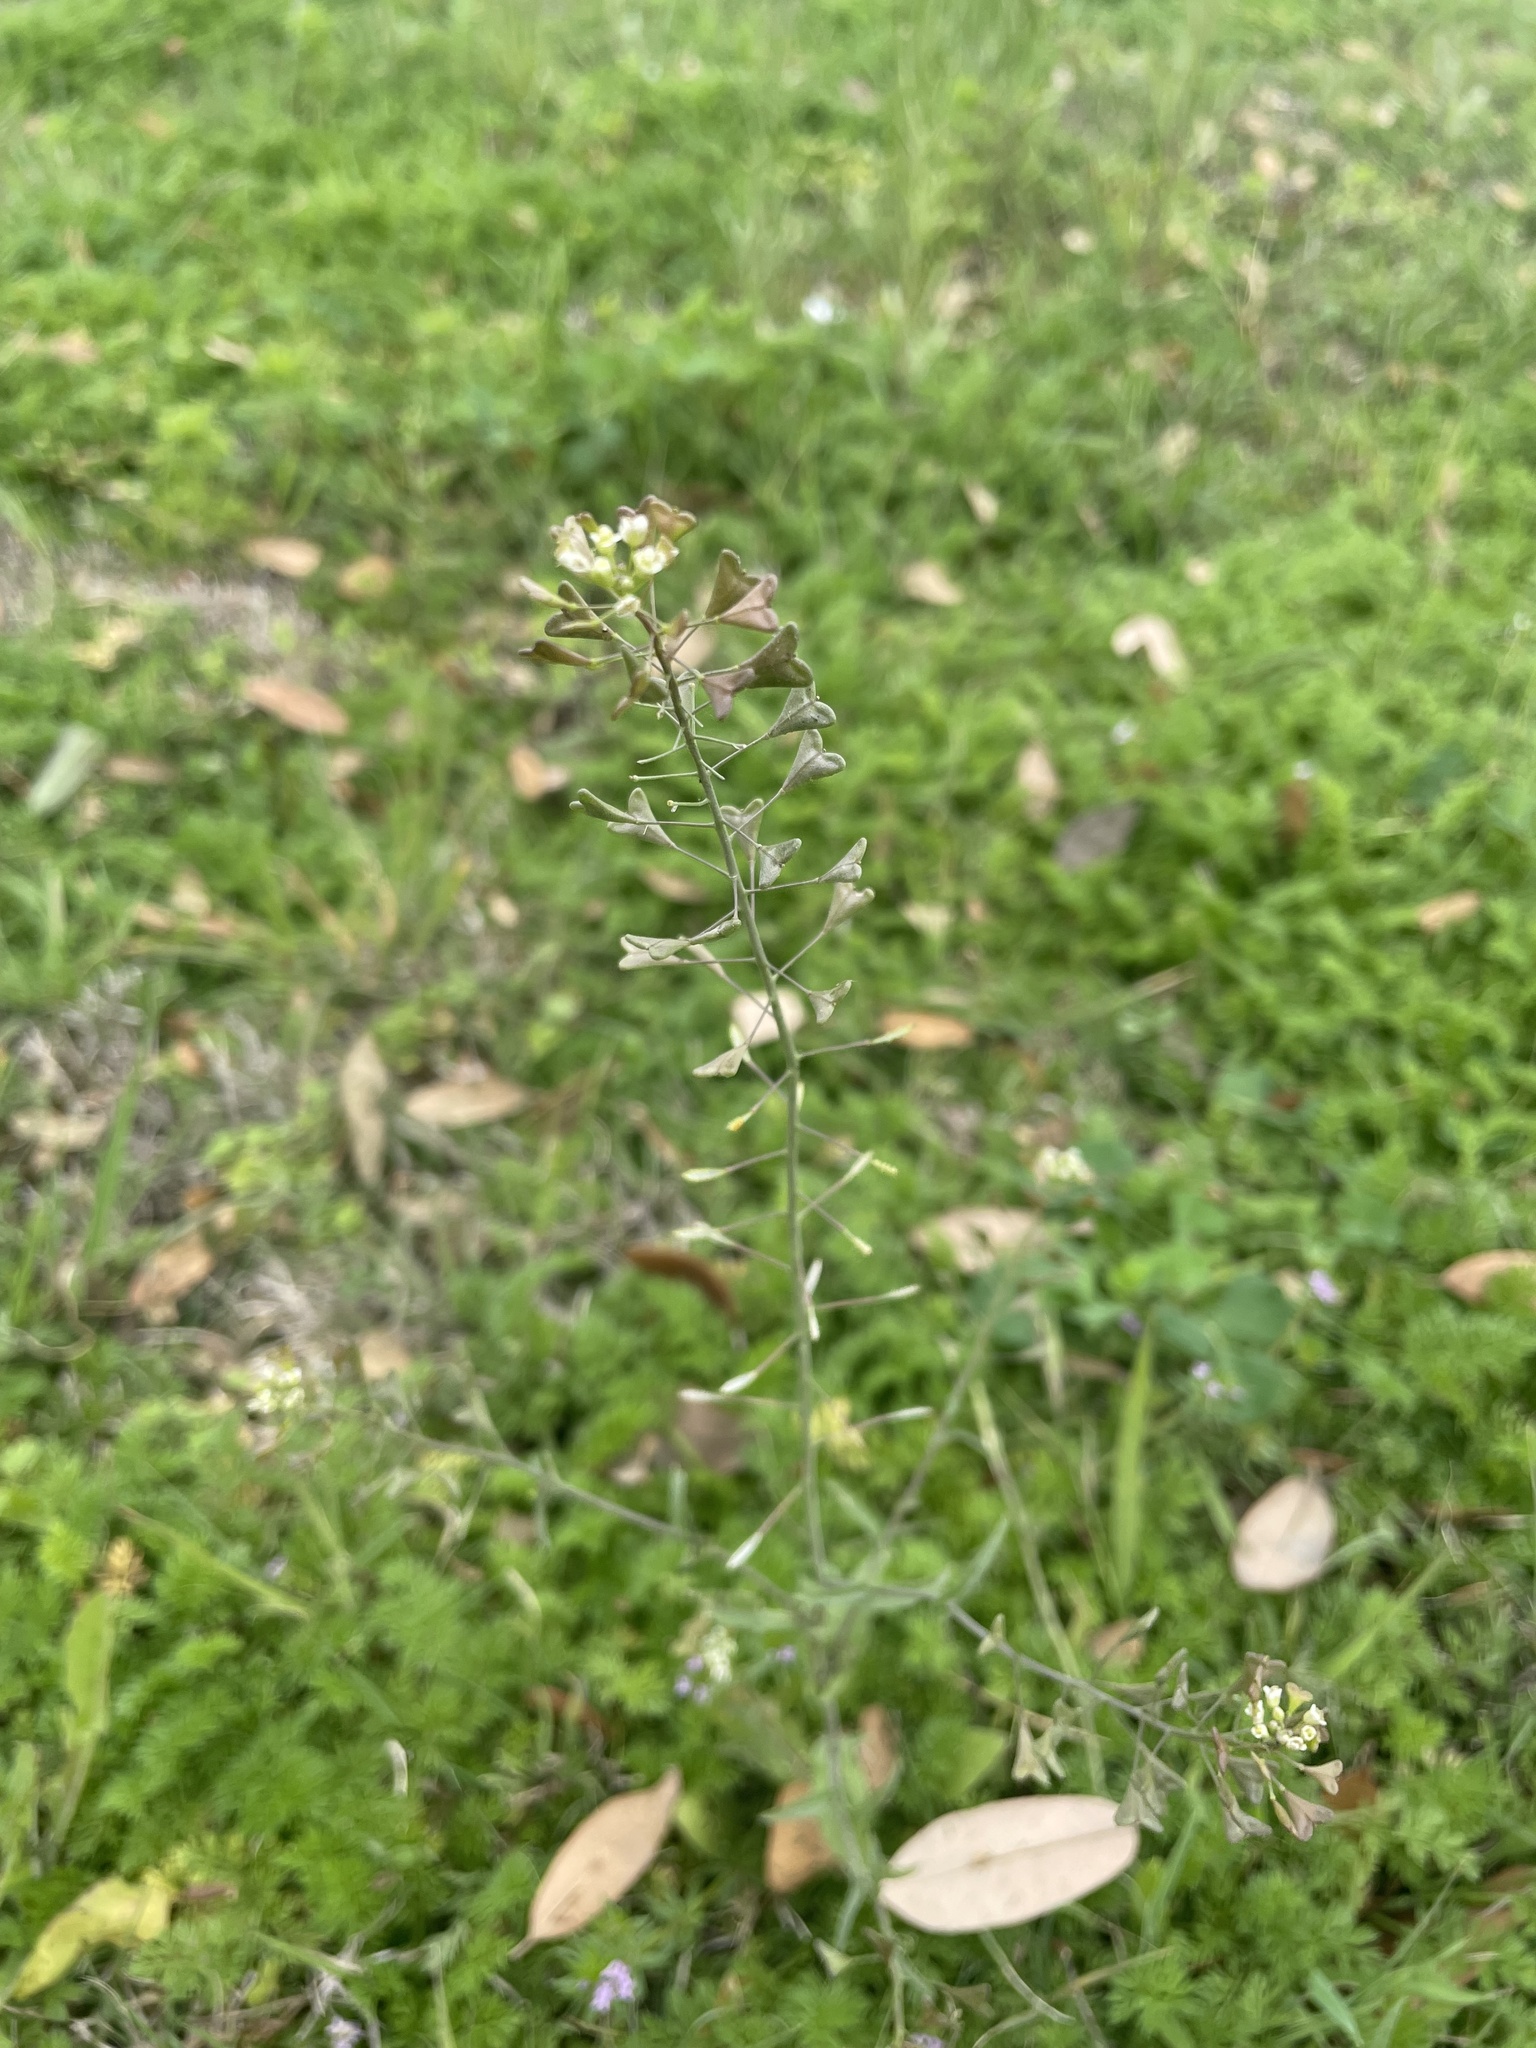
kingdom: Plantae
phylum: Tracheophyta
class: Magnoliopsida
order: Brassicales
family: Brassicaceae
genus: Capsella
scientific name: Capsella bursa-pastoris
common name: Shepherd's purse
